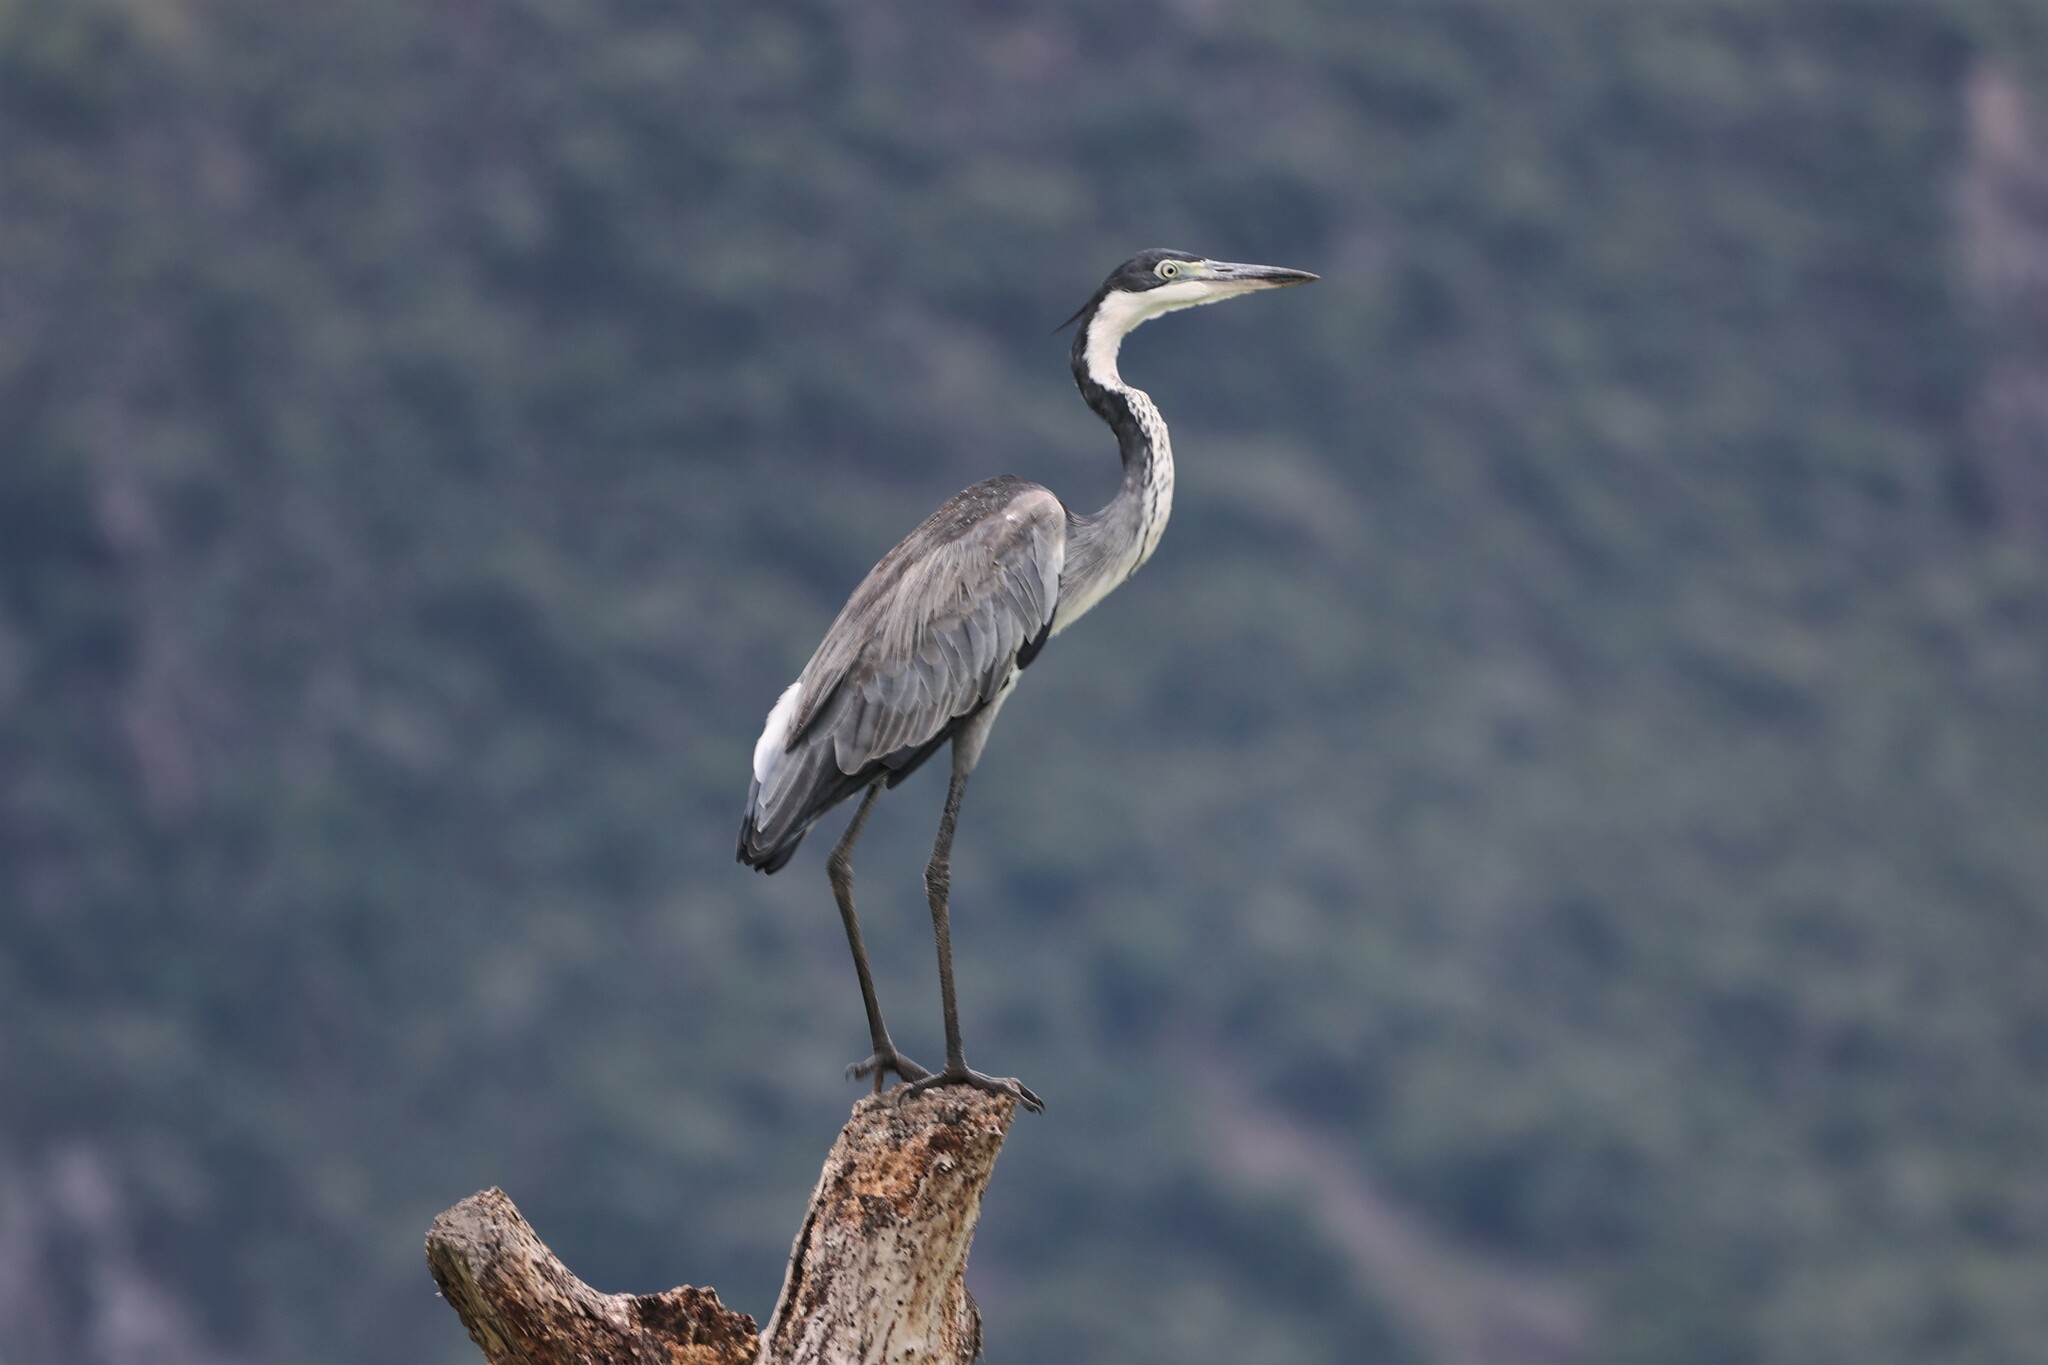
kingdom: Animalia
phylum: Chordata
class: Aves
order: Pelecaniformes
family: Ardeidae
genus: Ardea
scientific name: Ardea melanocephala
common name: Black-headed heron
